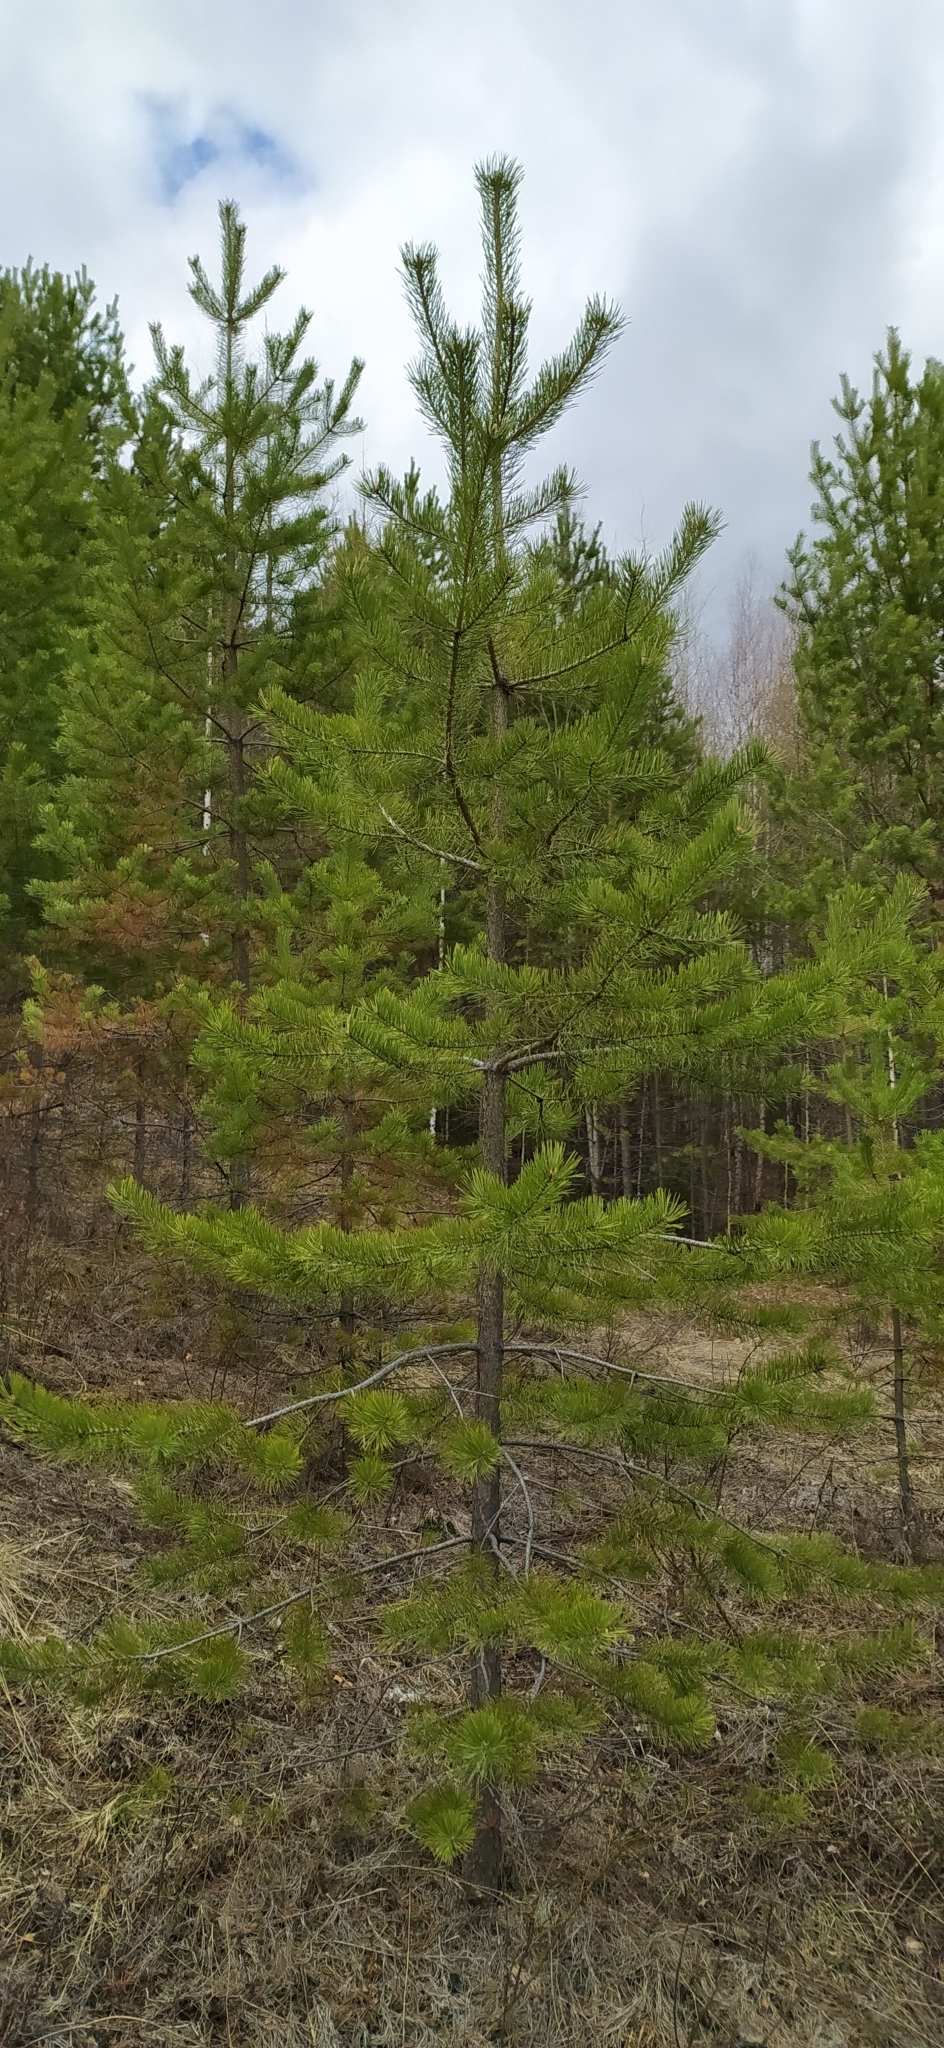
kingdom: Plantae
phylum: Tracheophyta
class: Pinopsida
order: Pinales
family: Pinaceae
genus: Pinus
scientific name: Pinus sylvestris
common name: Scots pine
